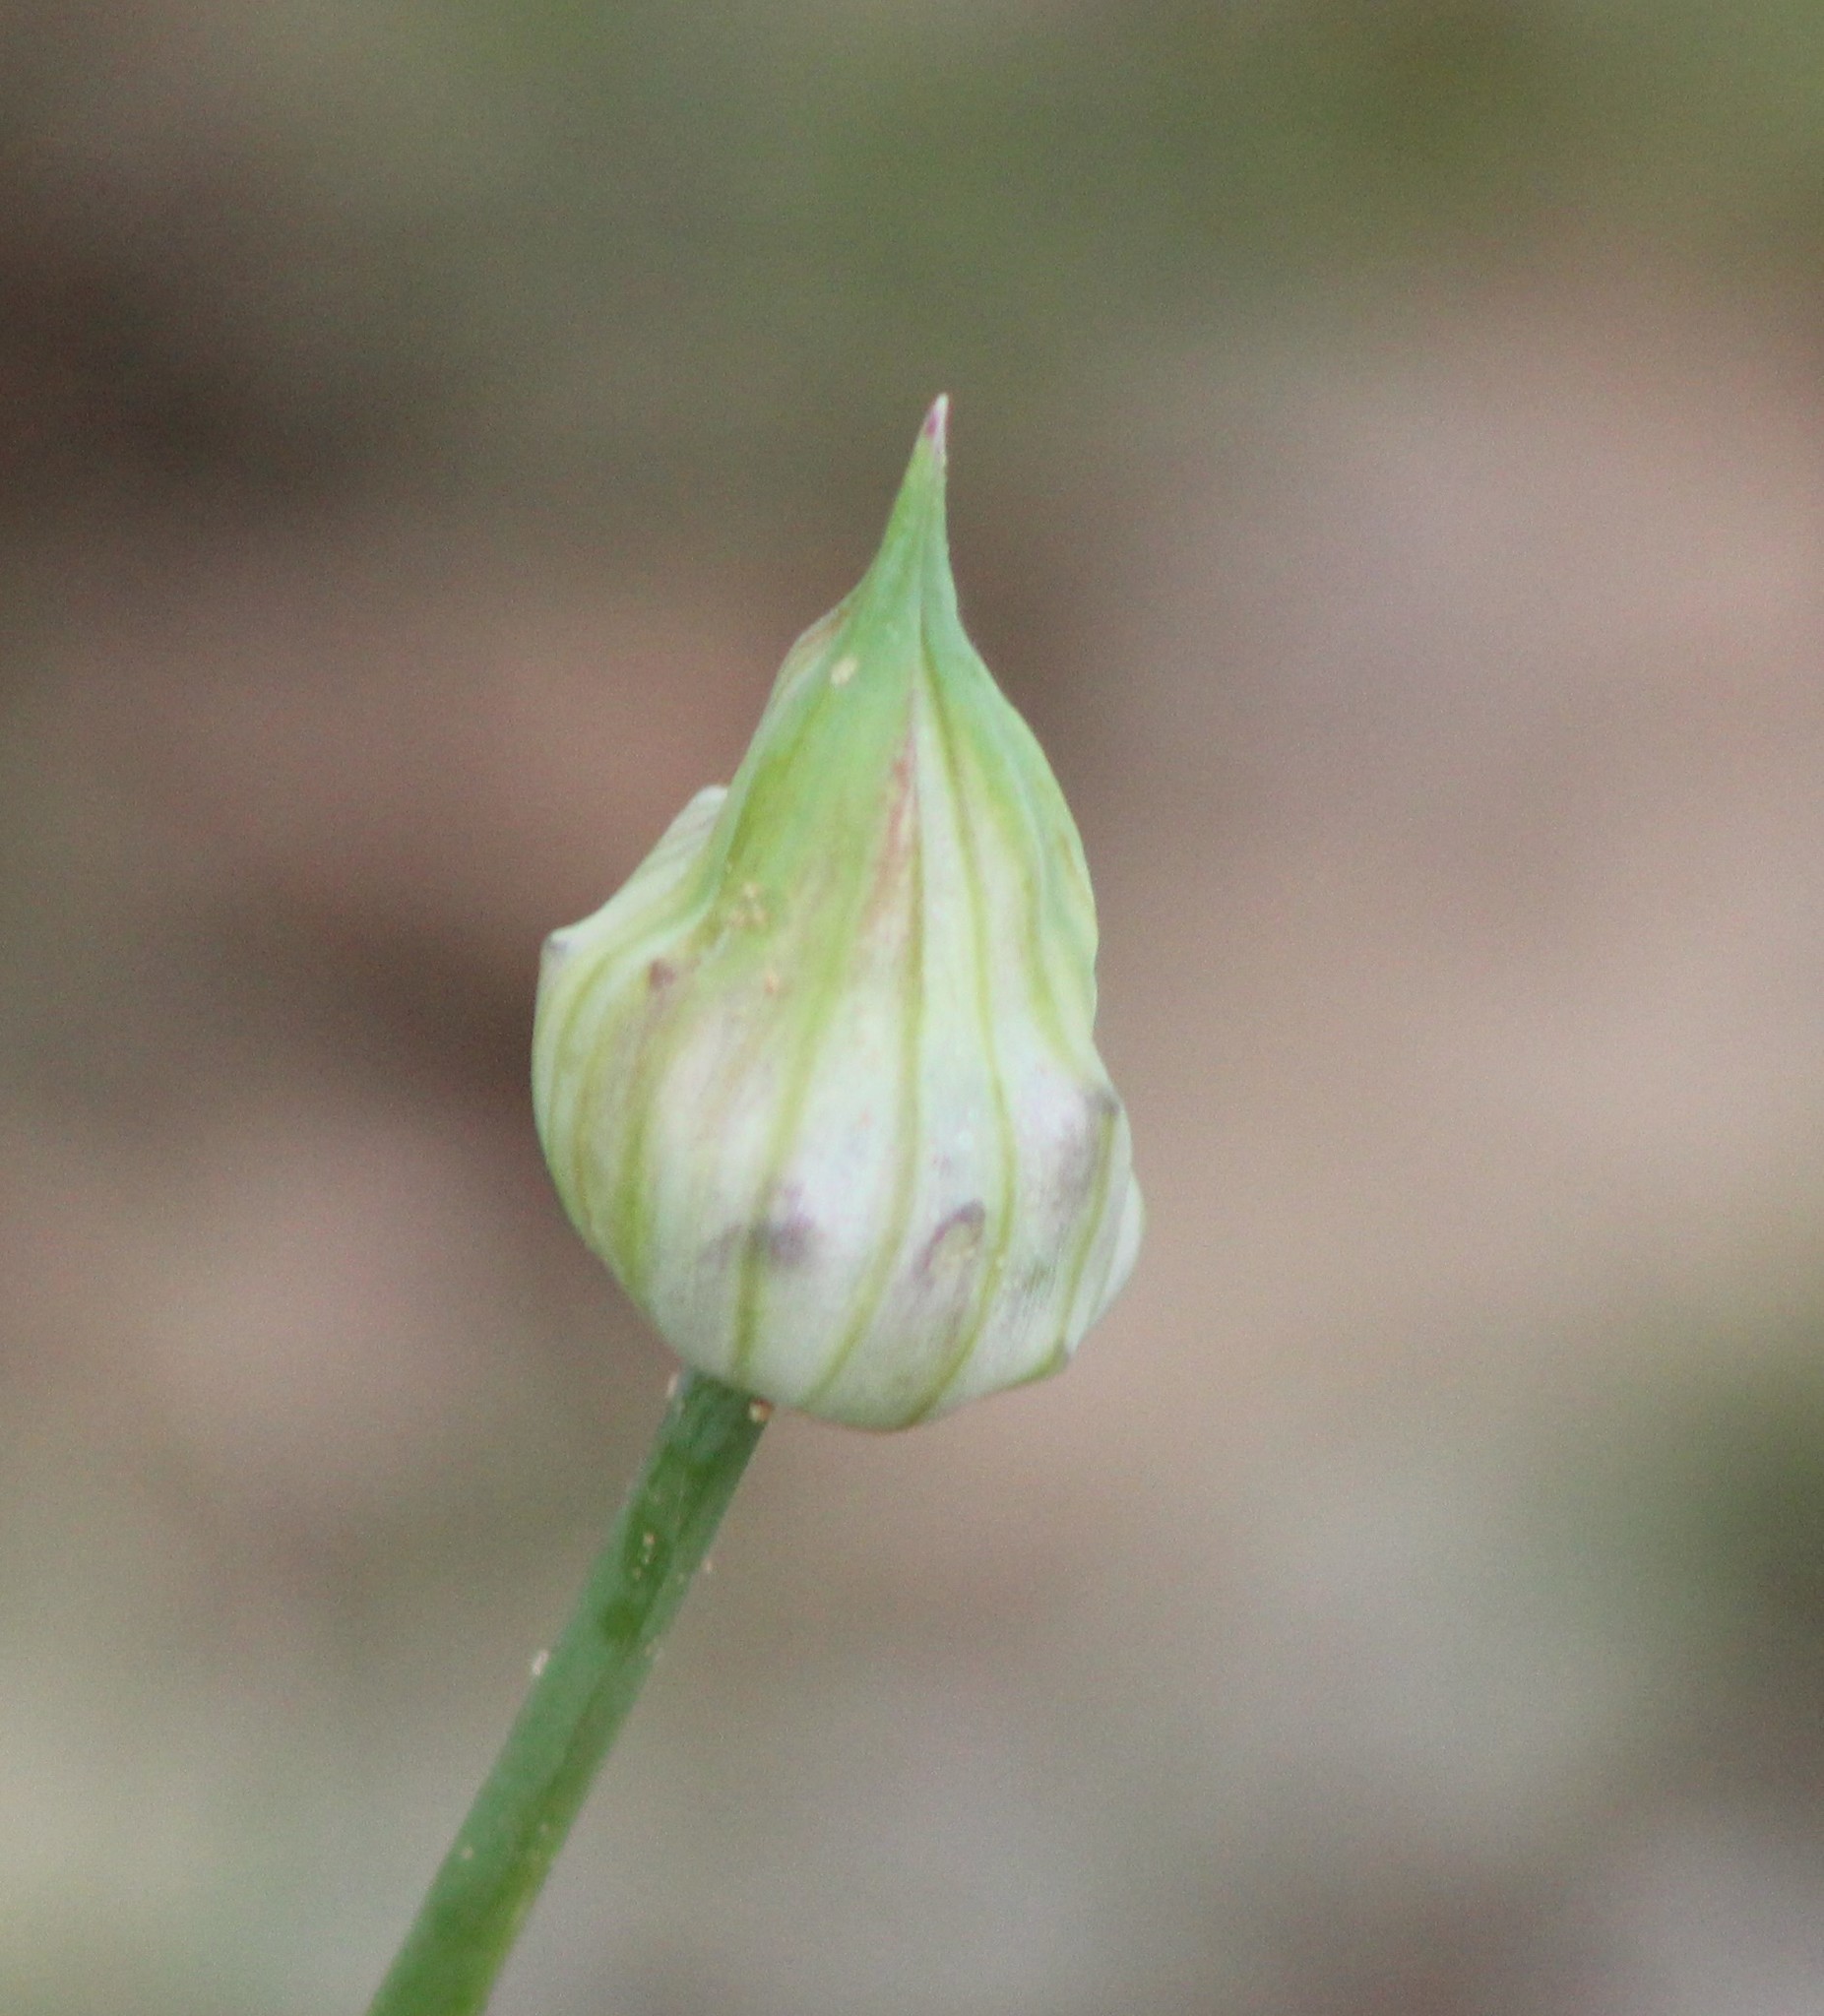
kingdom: Plantae
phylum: Tracheophyta
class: Liliopsida
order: Asparagales
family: Amaryllidaceae
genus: Allium
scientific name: Allium canadense
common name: Meadow garlic
